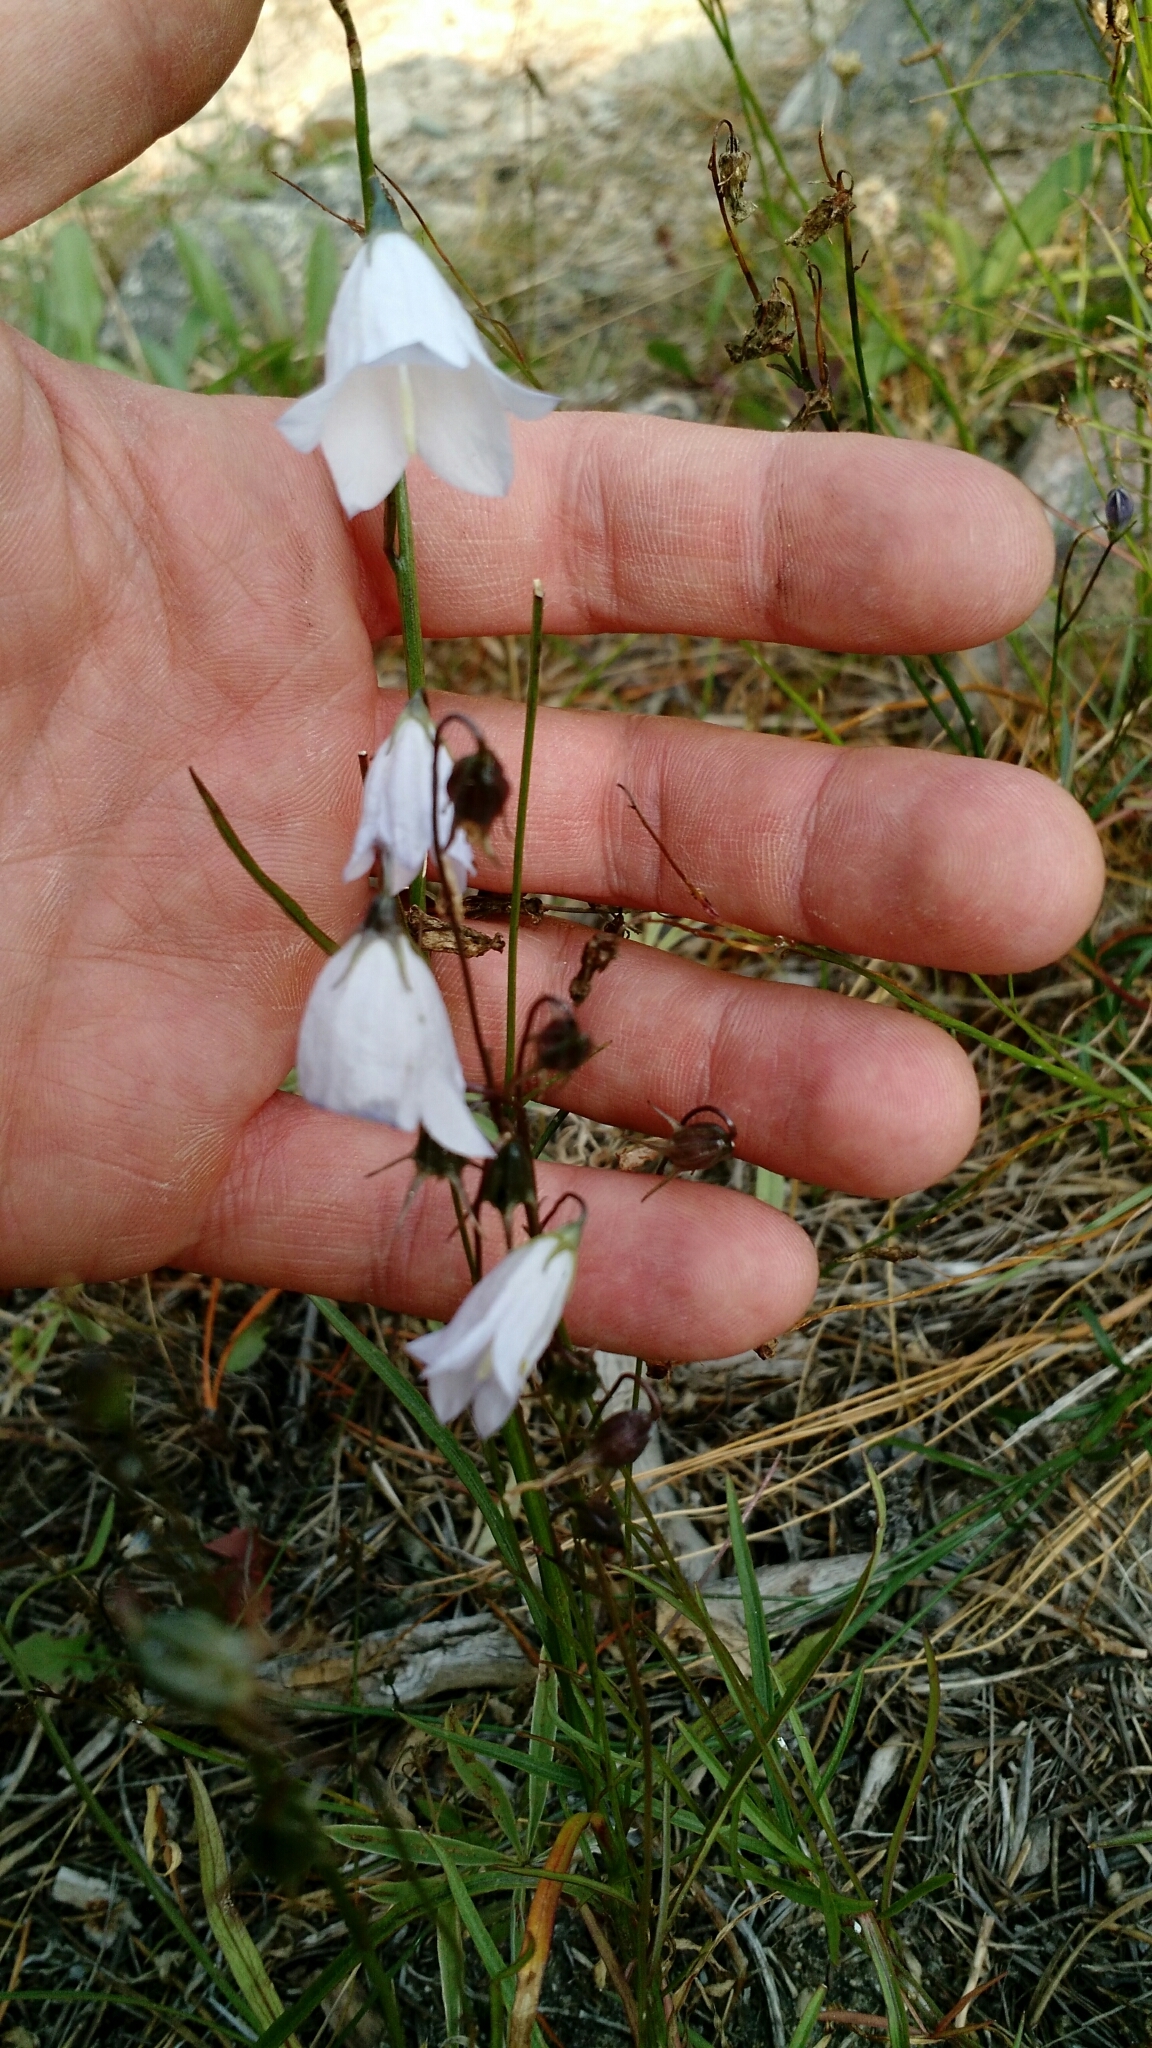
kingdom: Plantae
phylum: Tracheophyta
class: Magnoliopsida
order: Asterales
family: Campanulaceae
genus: Campanula
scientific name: Campanula petiolata
